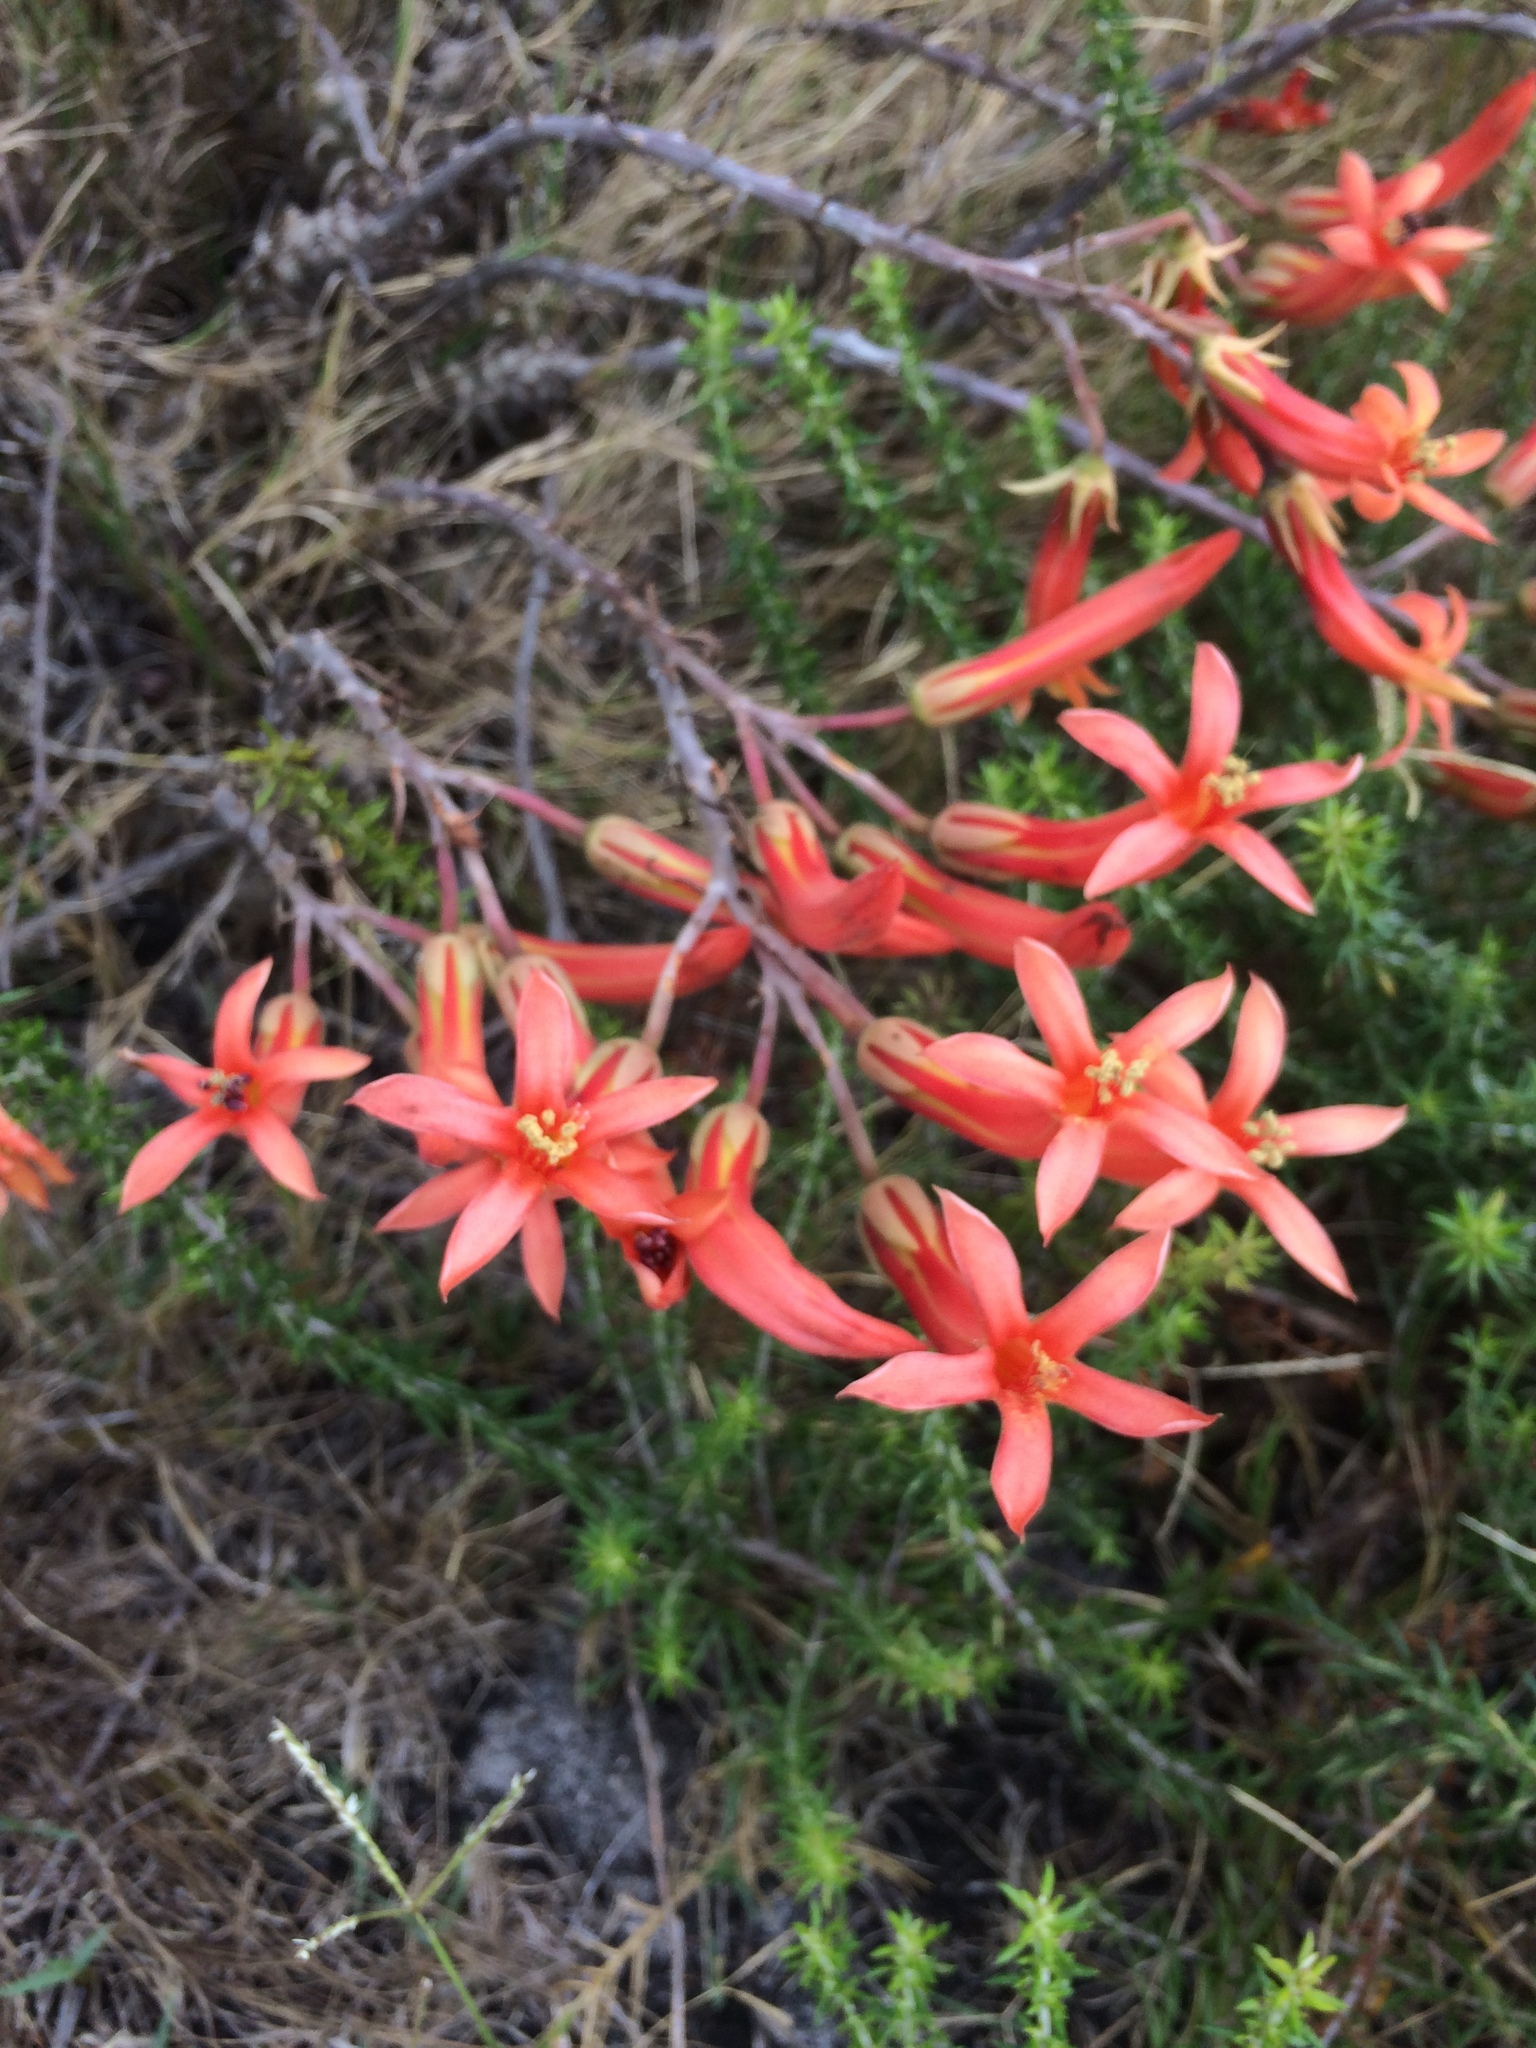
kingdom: Plantae
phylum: Tracheophyta
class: Magnoliopsida
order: Saxifragales
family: Crassulaceae
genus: Tylecodon
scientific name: Tylecodon grandiflorus
